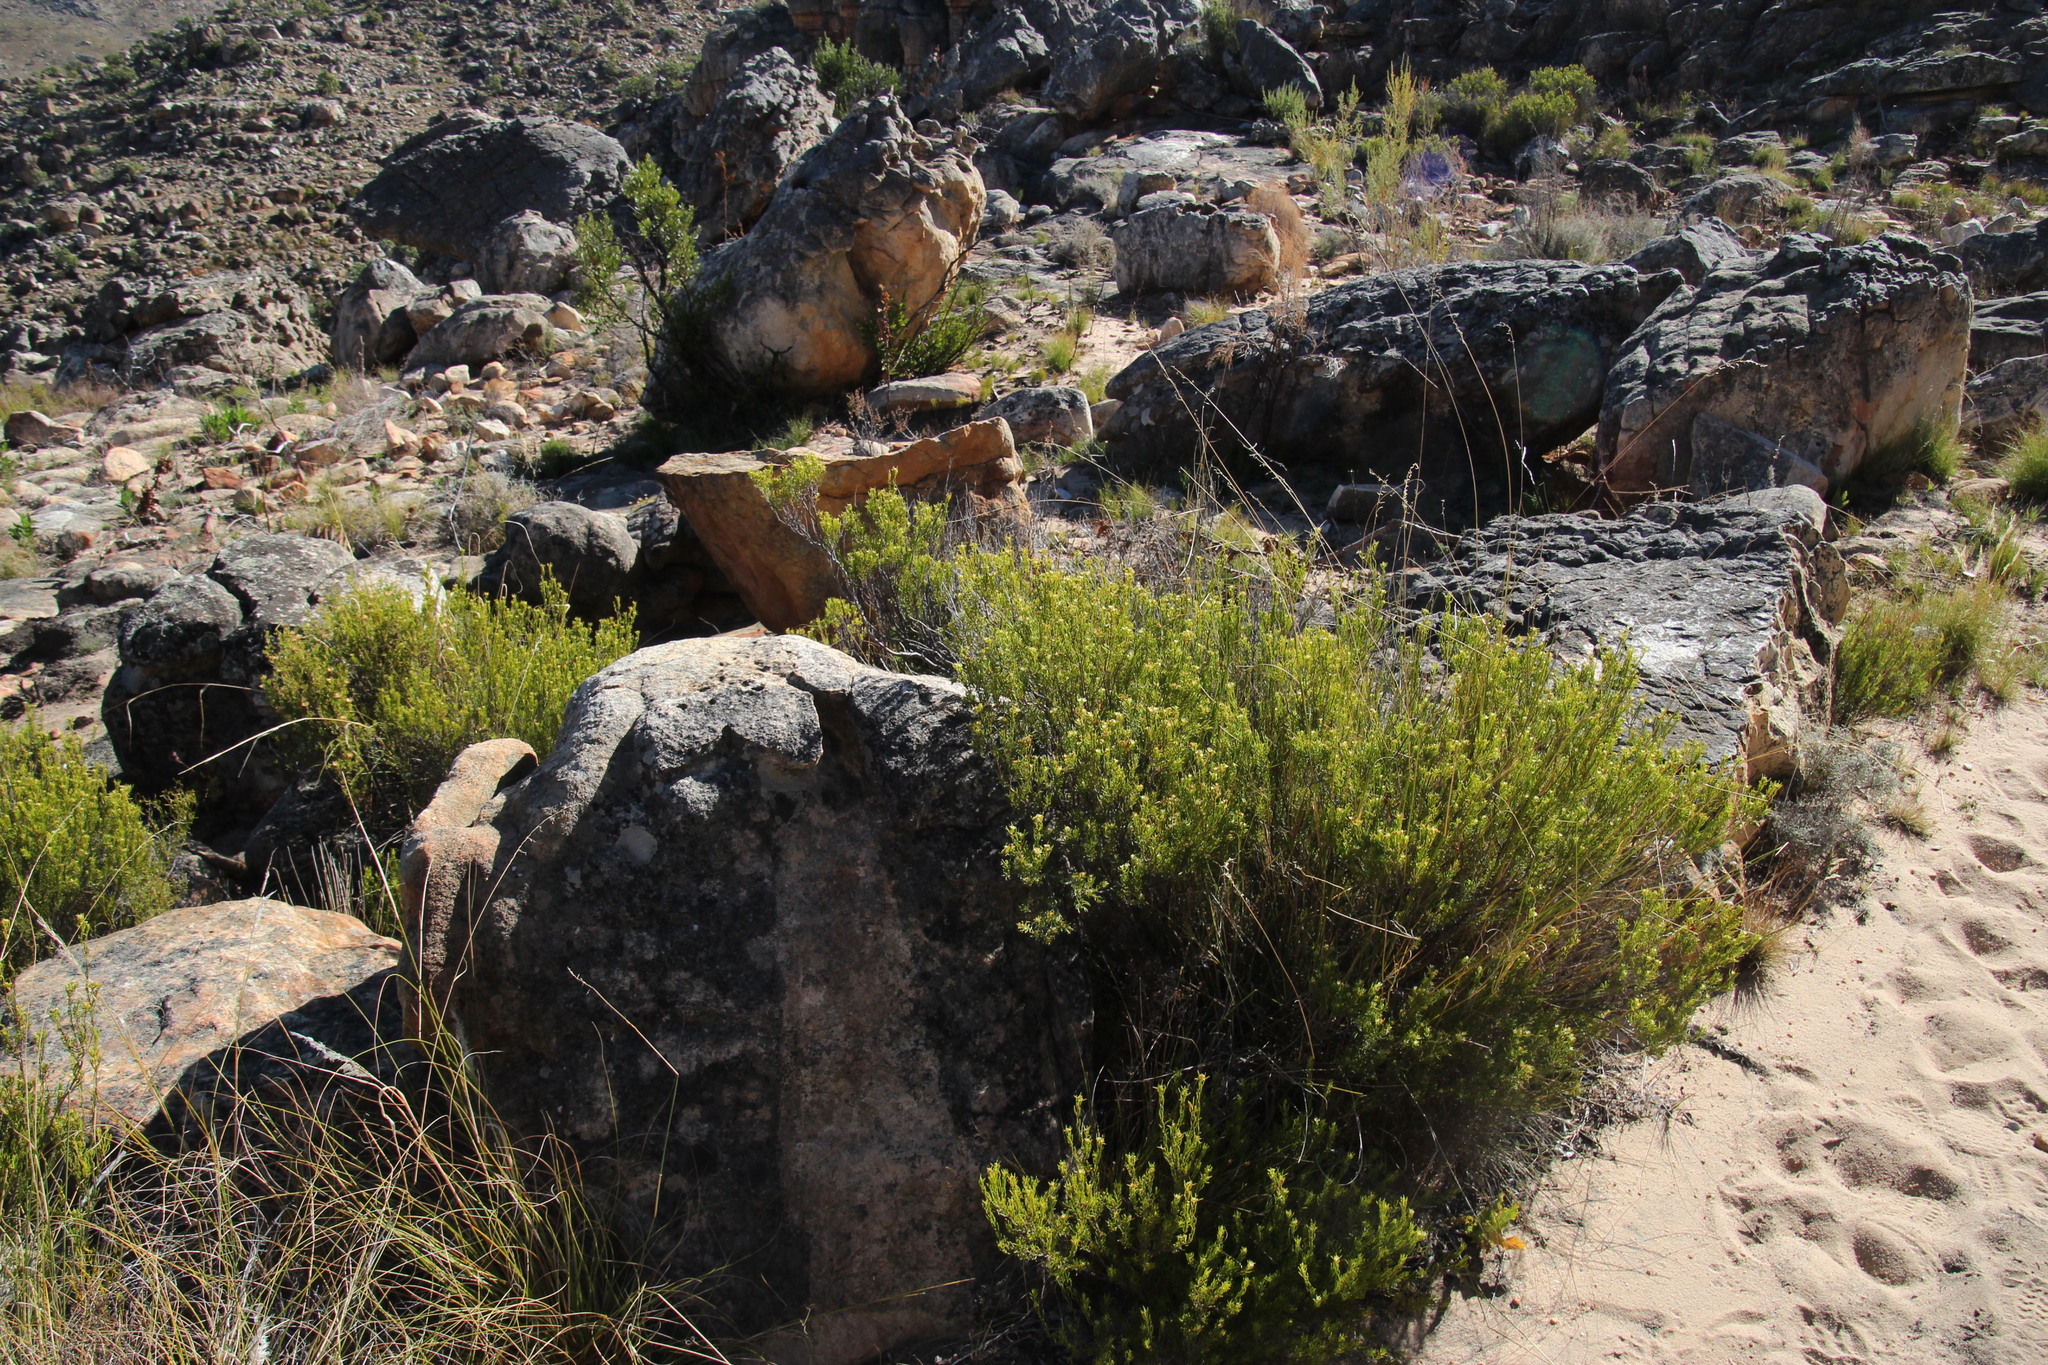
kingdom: Plantae
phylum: Tracheophyta
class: Magnoliopsida
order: Sapindales
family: Rutaceae
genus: Diosma
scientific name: Diosma acmaeophylla
